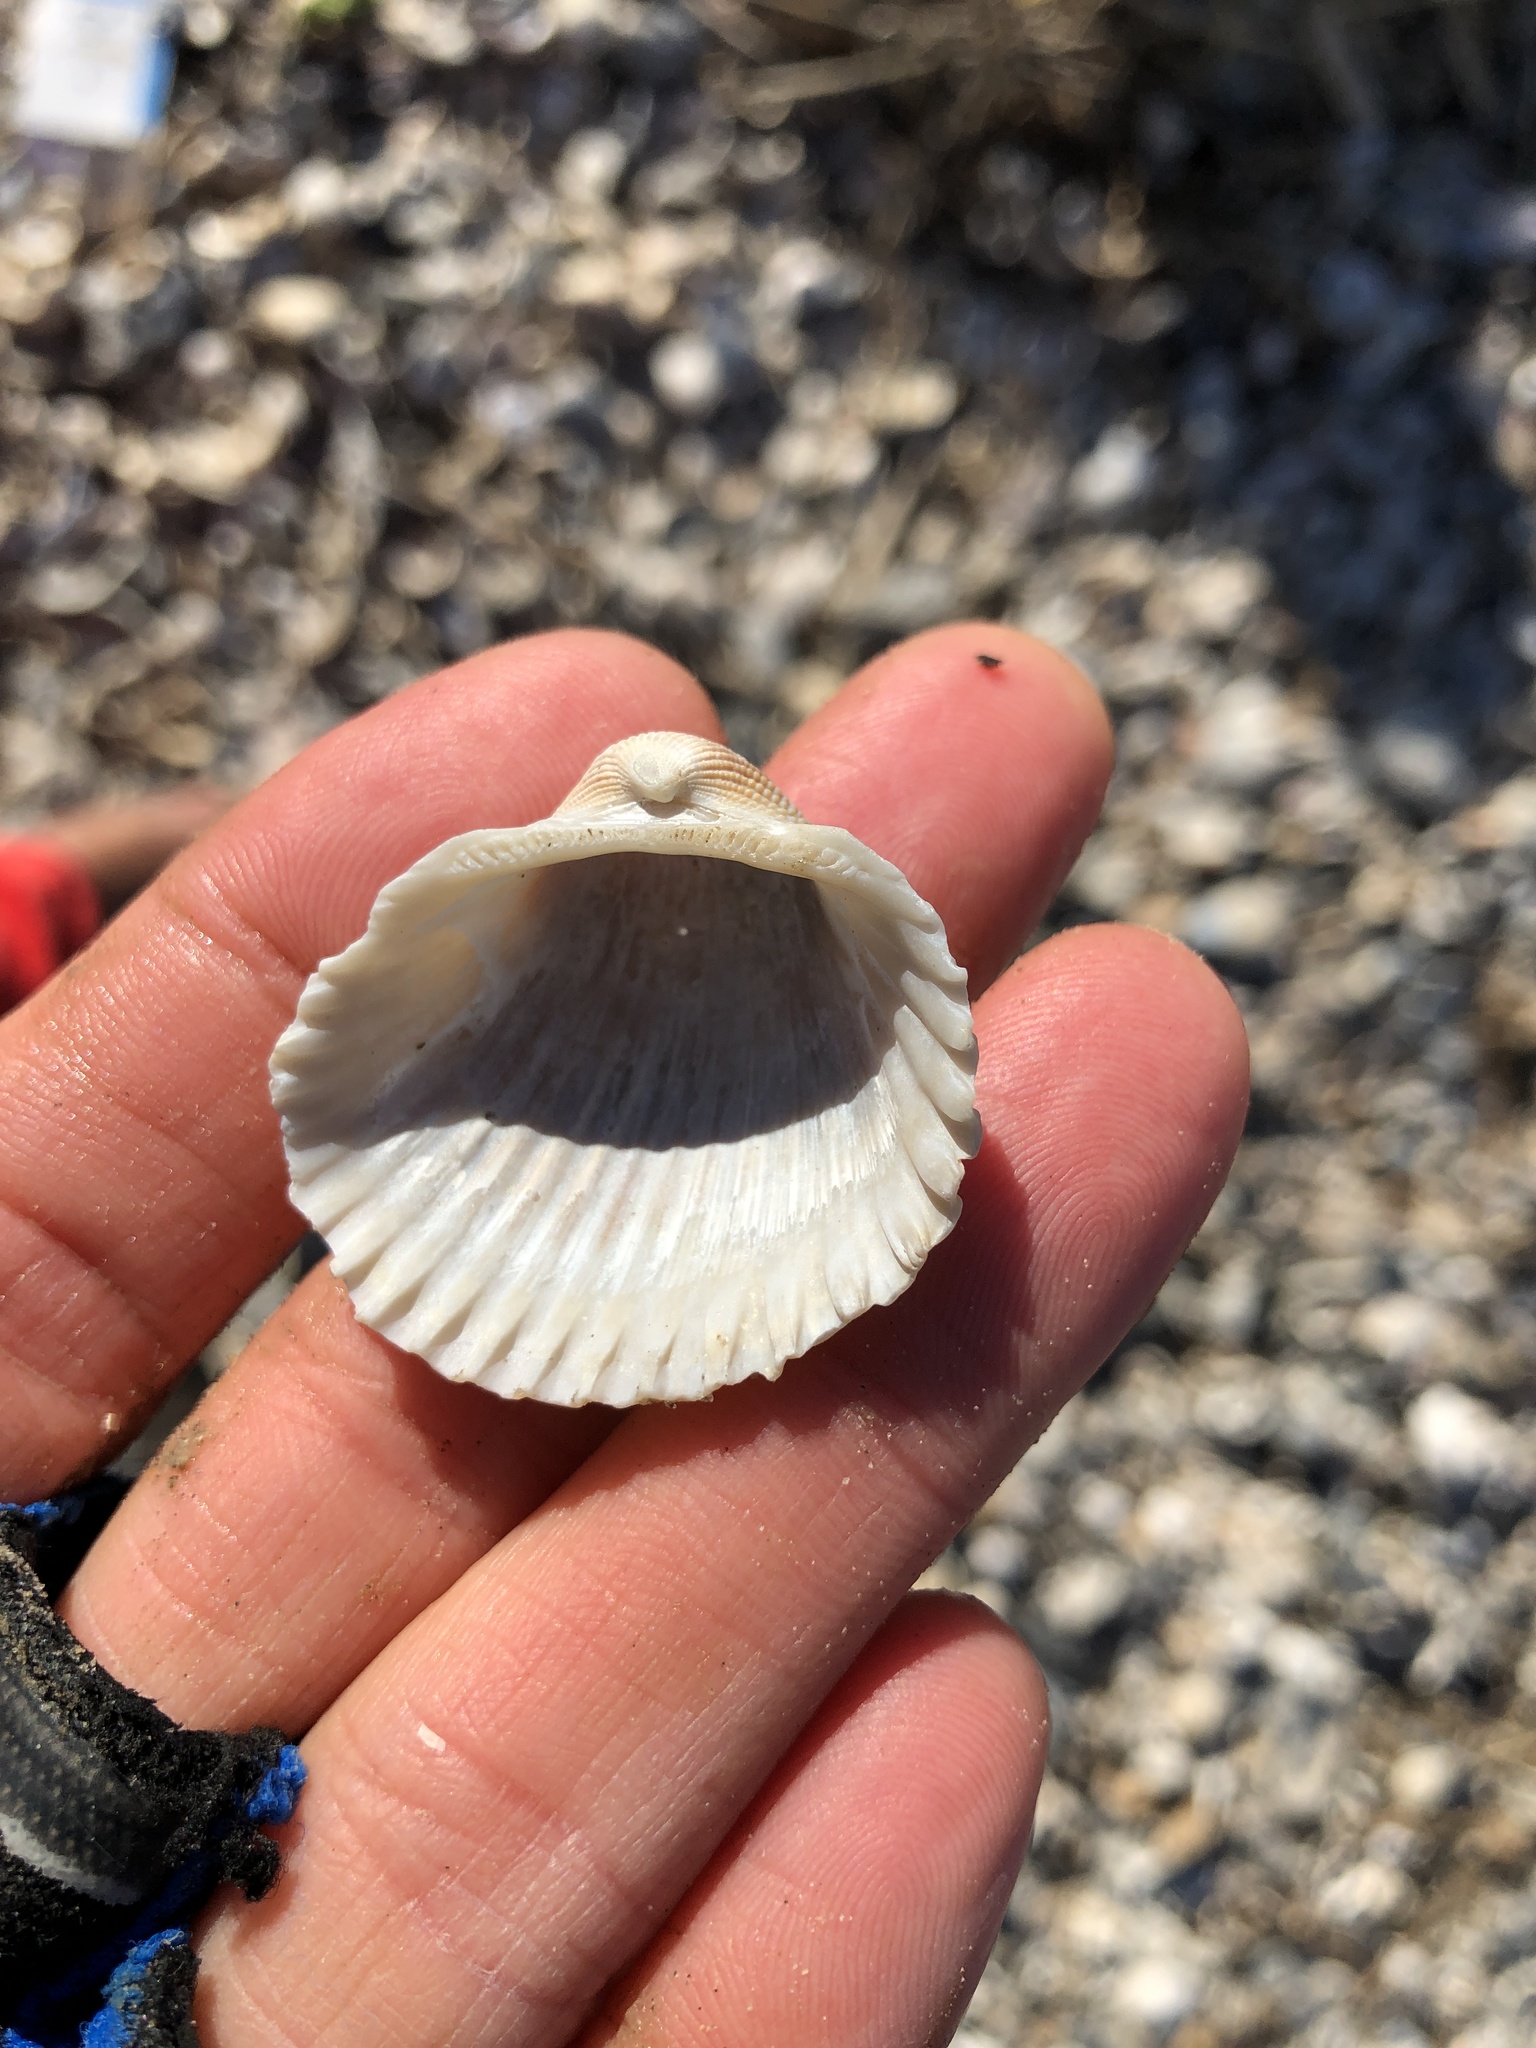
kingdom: Animalia
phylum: Mollusca
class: Bivalvia
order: Arcida
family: Arcidae
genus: Anadara
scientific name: Anadara brasiliana
